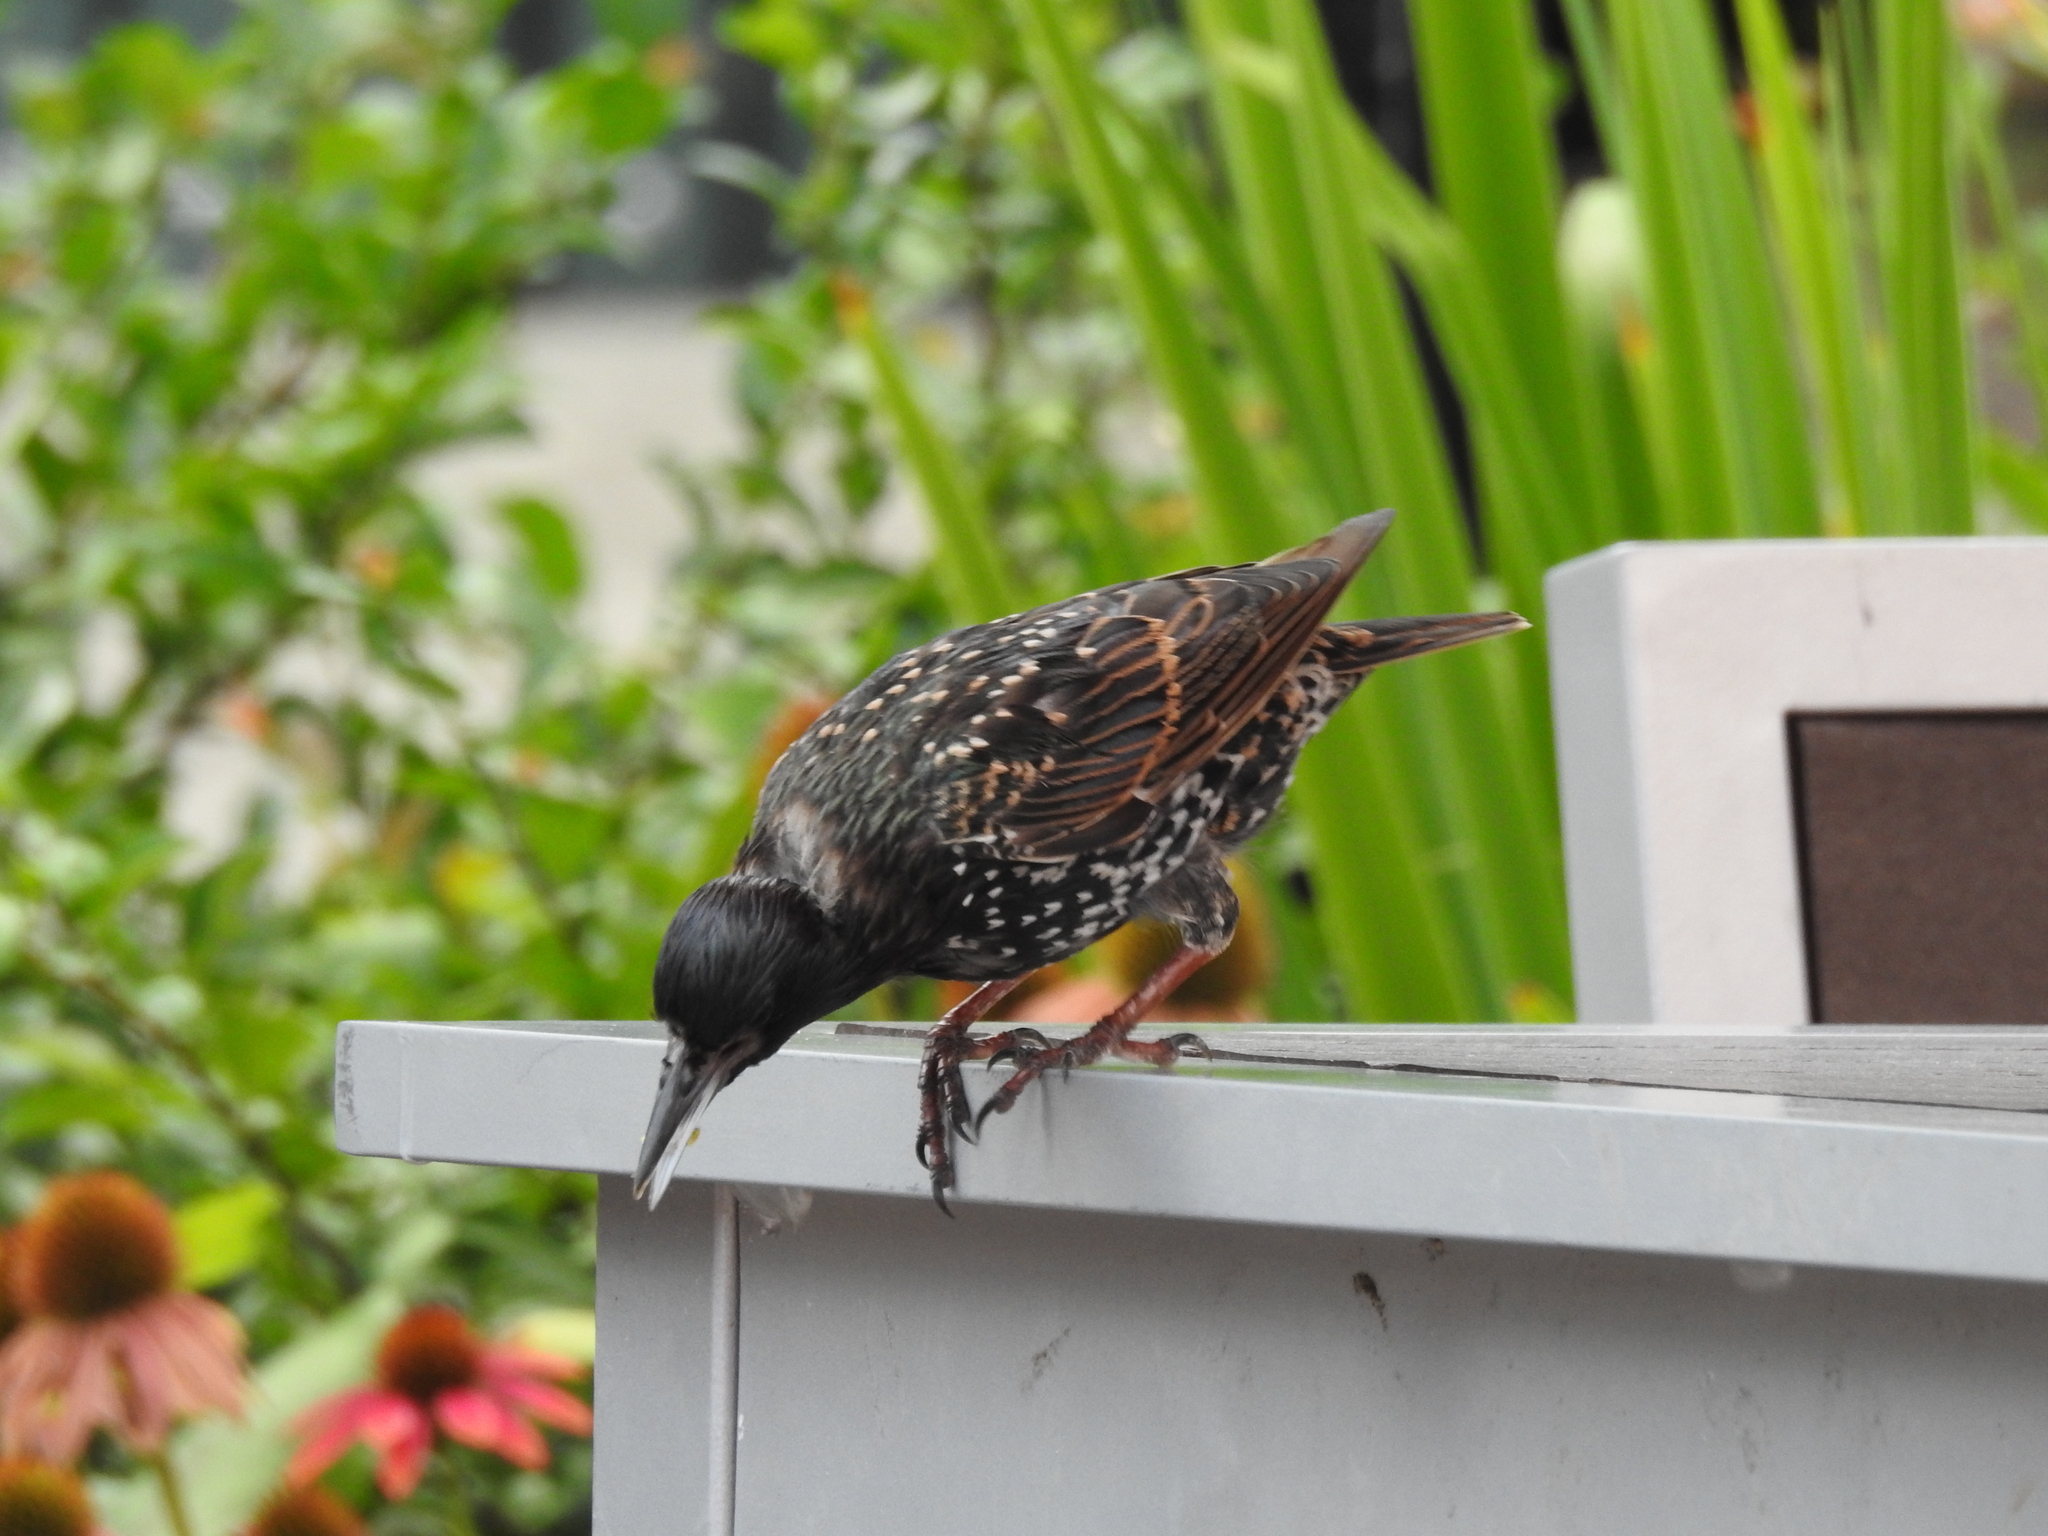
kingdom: Animalia
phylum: Chordata
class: Aves
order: Passeriformes
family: Sturnidae
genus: Sturnus
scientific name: Sturnus vulgaris
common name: Common starling
